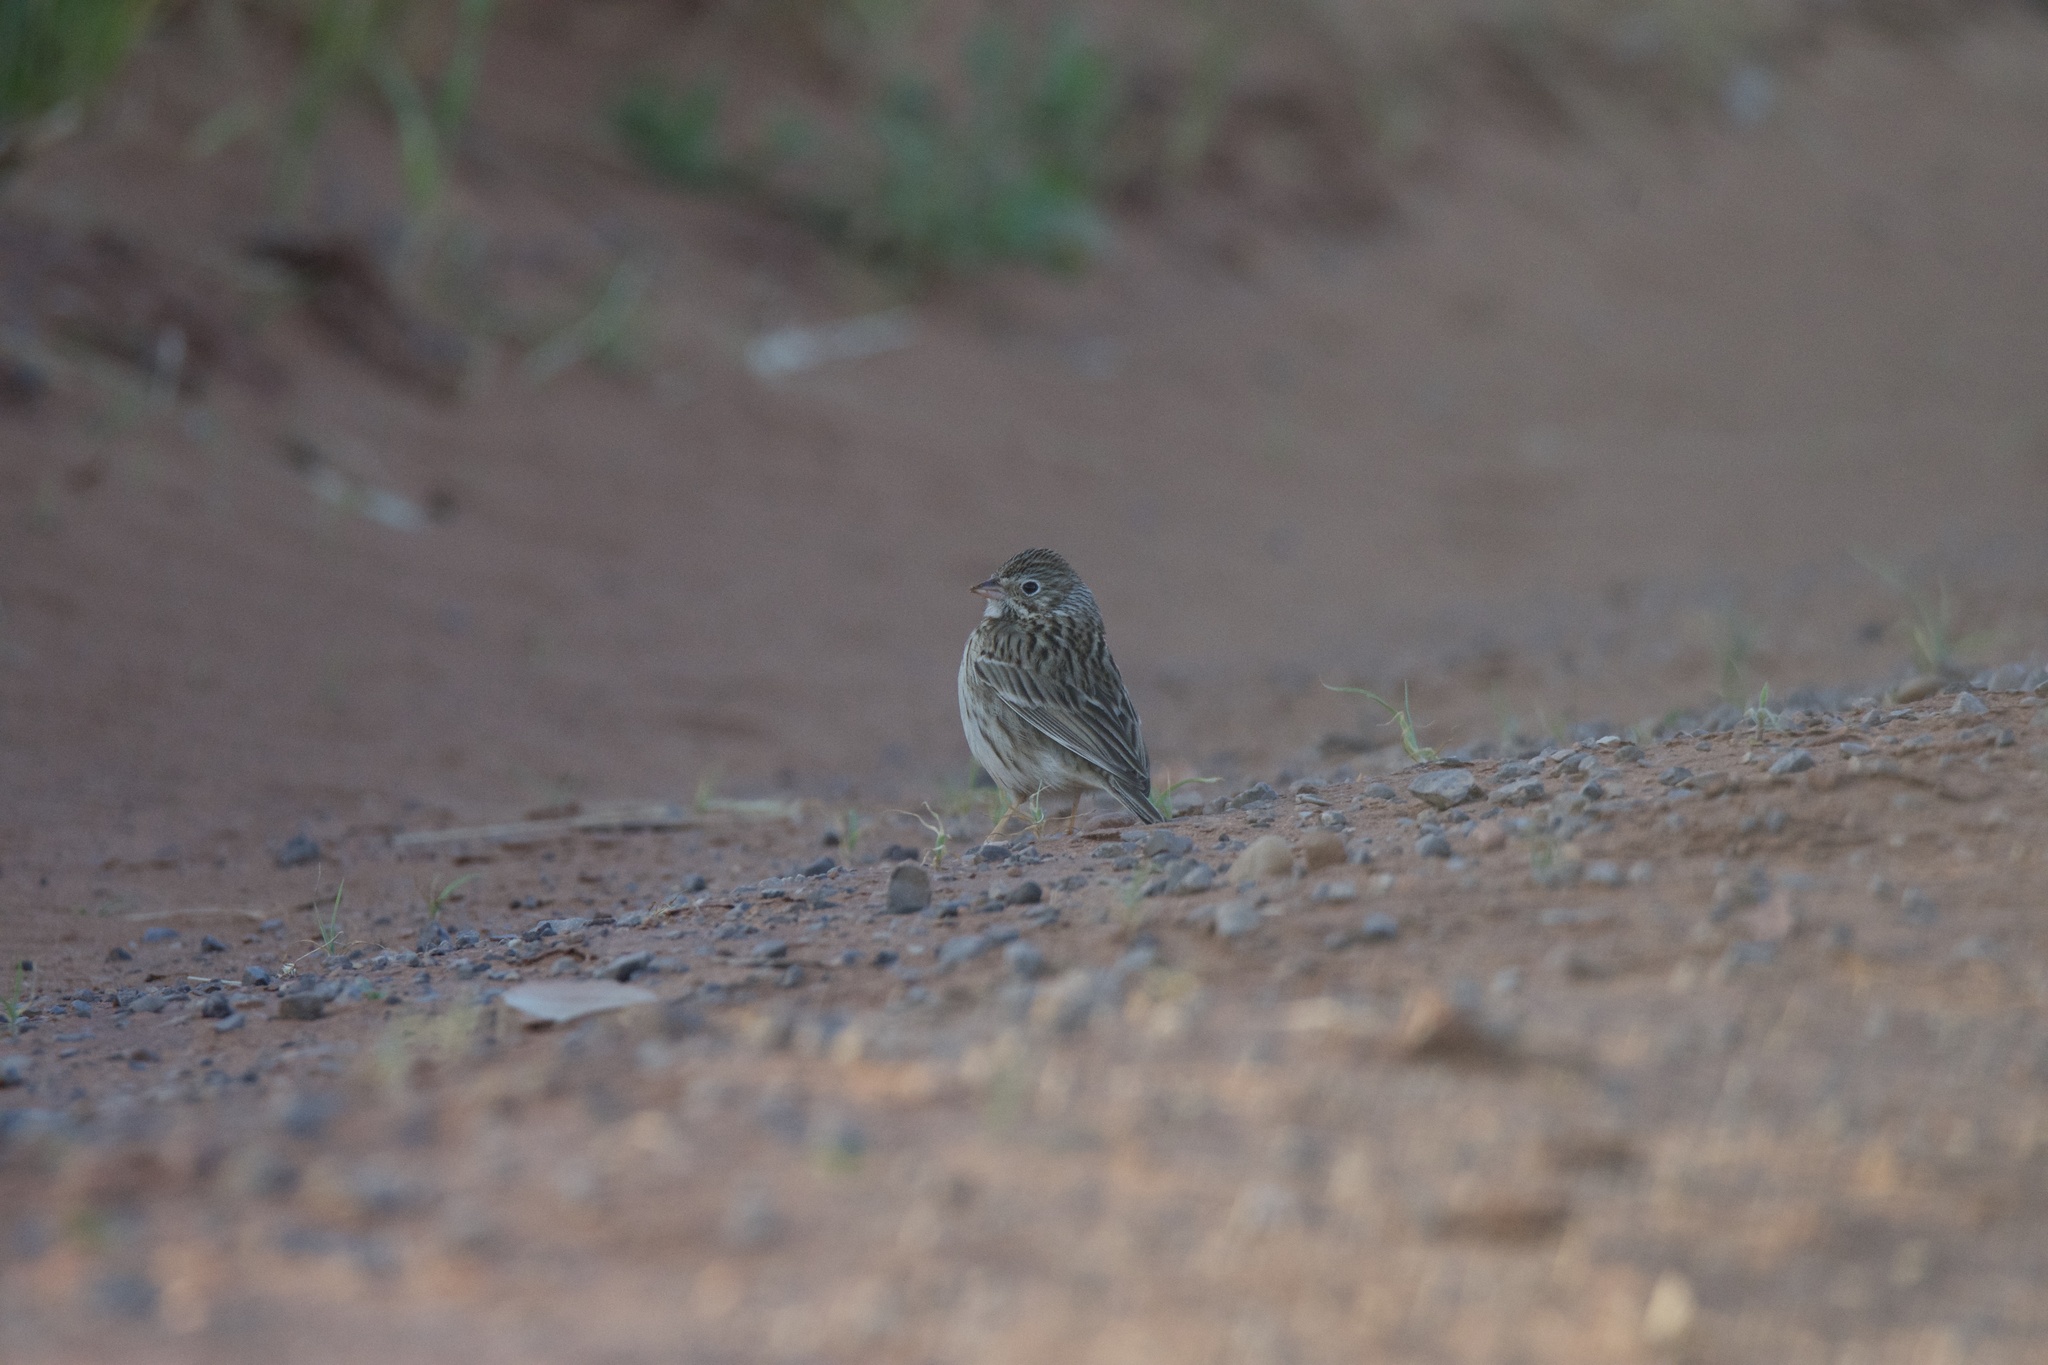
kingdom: Animalia
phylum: Chordata
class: Aves
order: Passeriformes
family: Passerellidae
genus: Pooecetes
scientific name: Pooecetes gramineus
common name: Vesper sparrow
